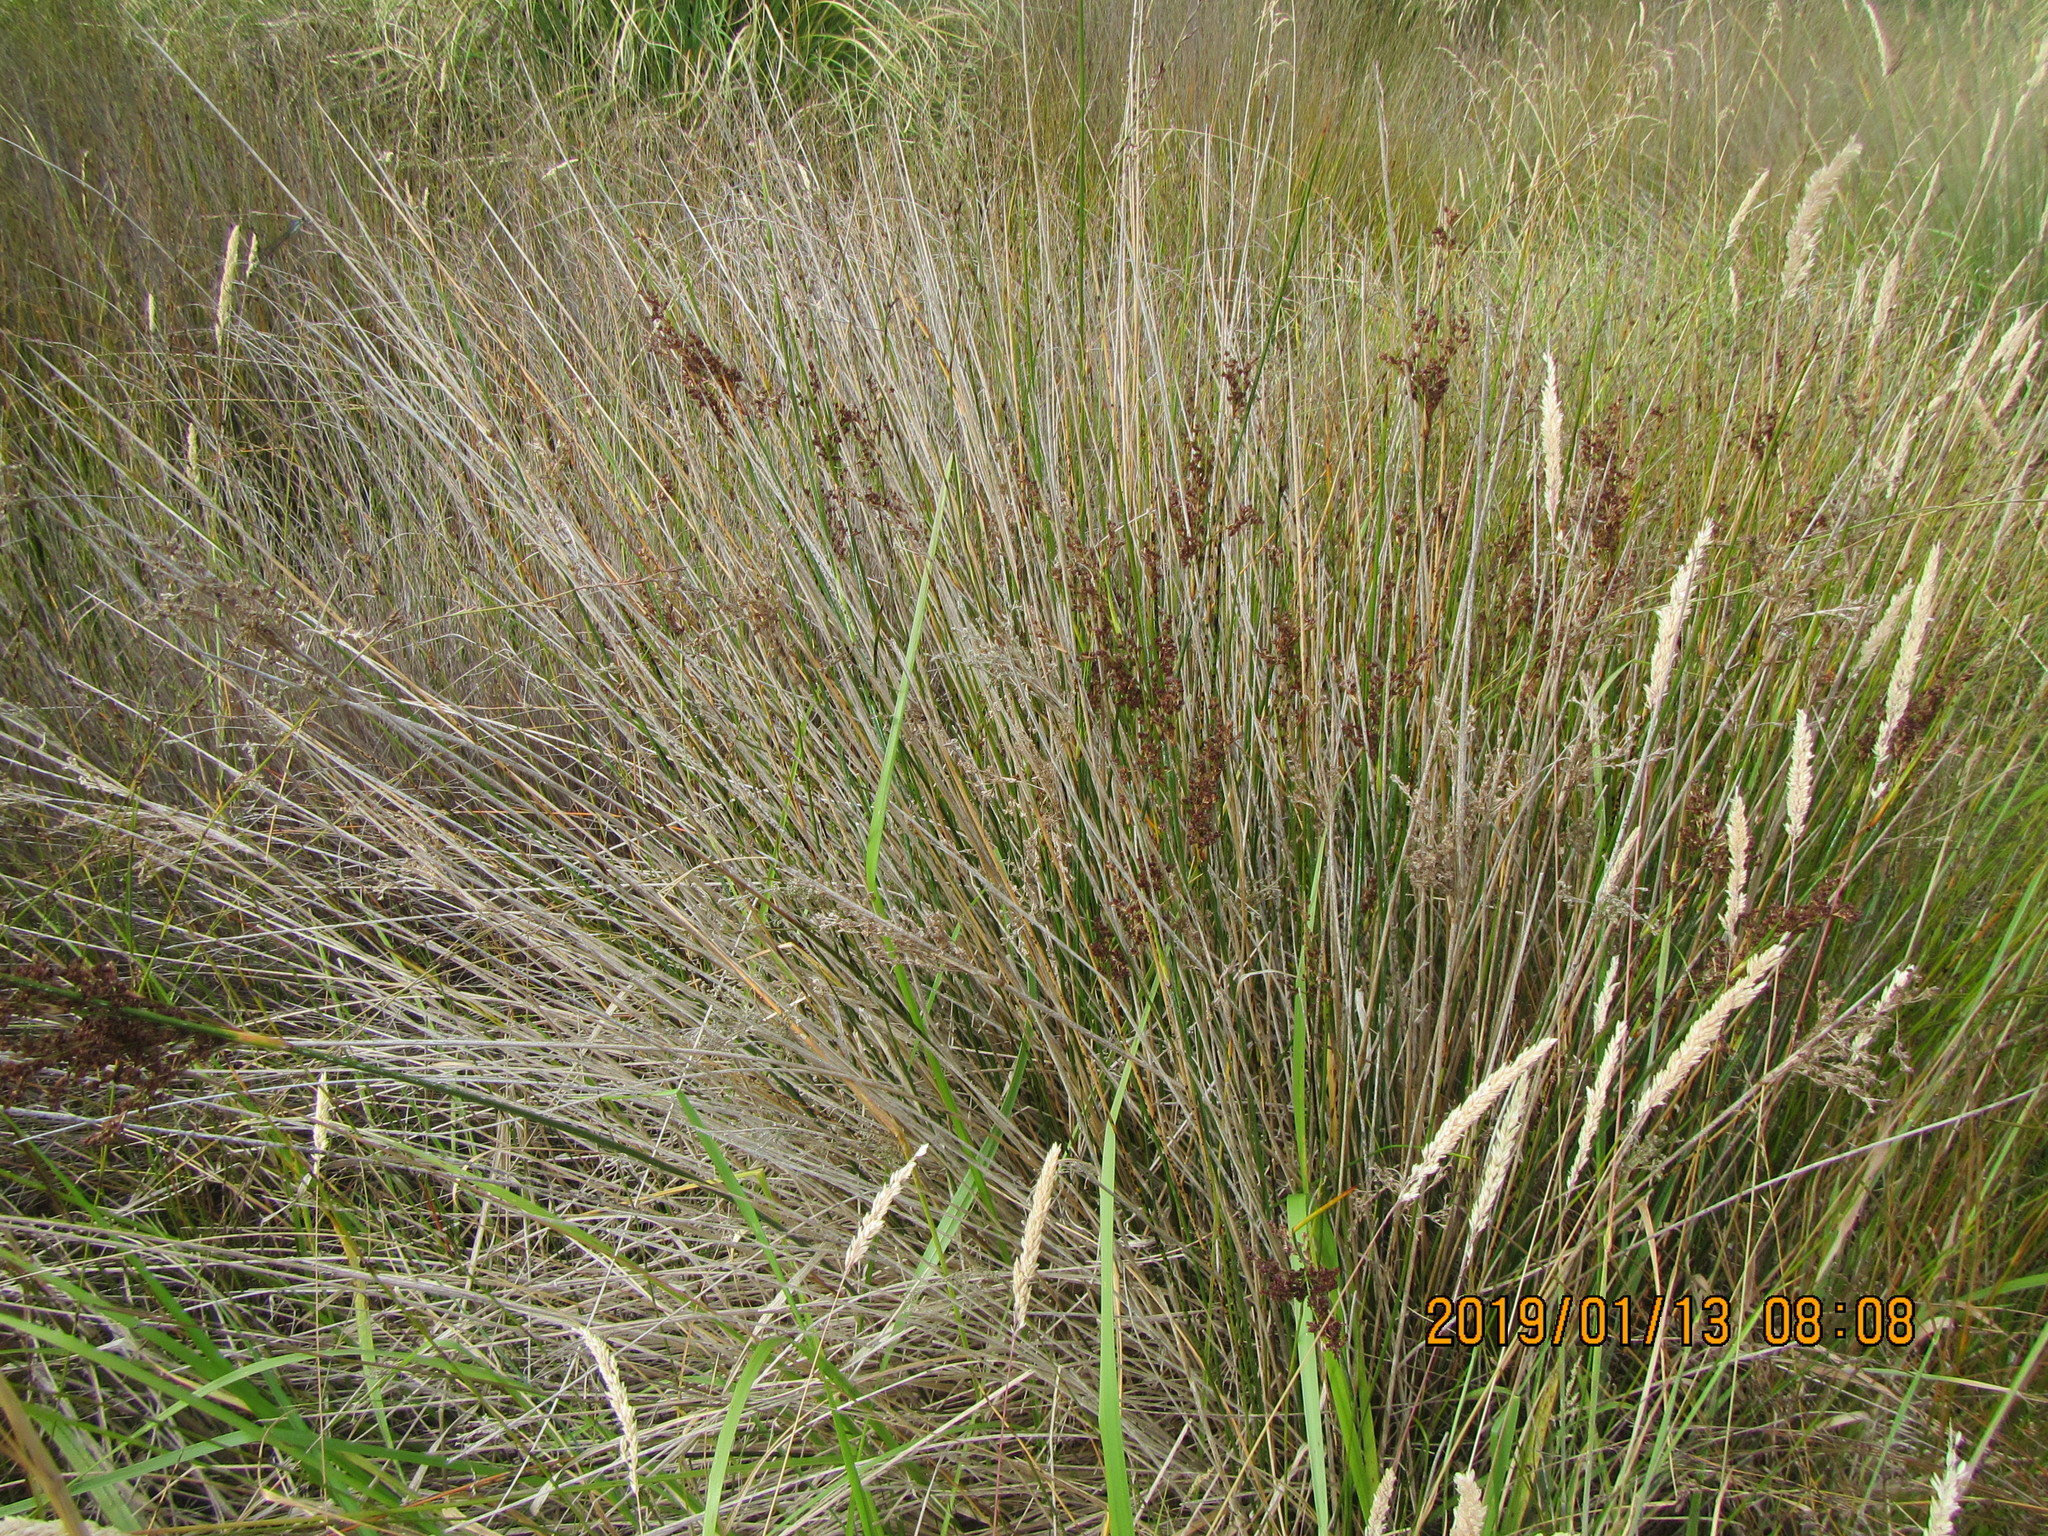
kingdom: Plantae
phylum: Tracheophyta
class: Liliopsida
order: Poales
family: Juncaceae
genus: Juncus
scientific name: Juncus kraussii
